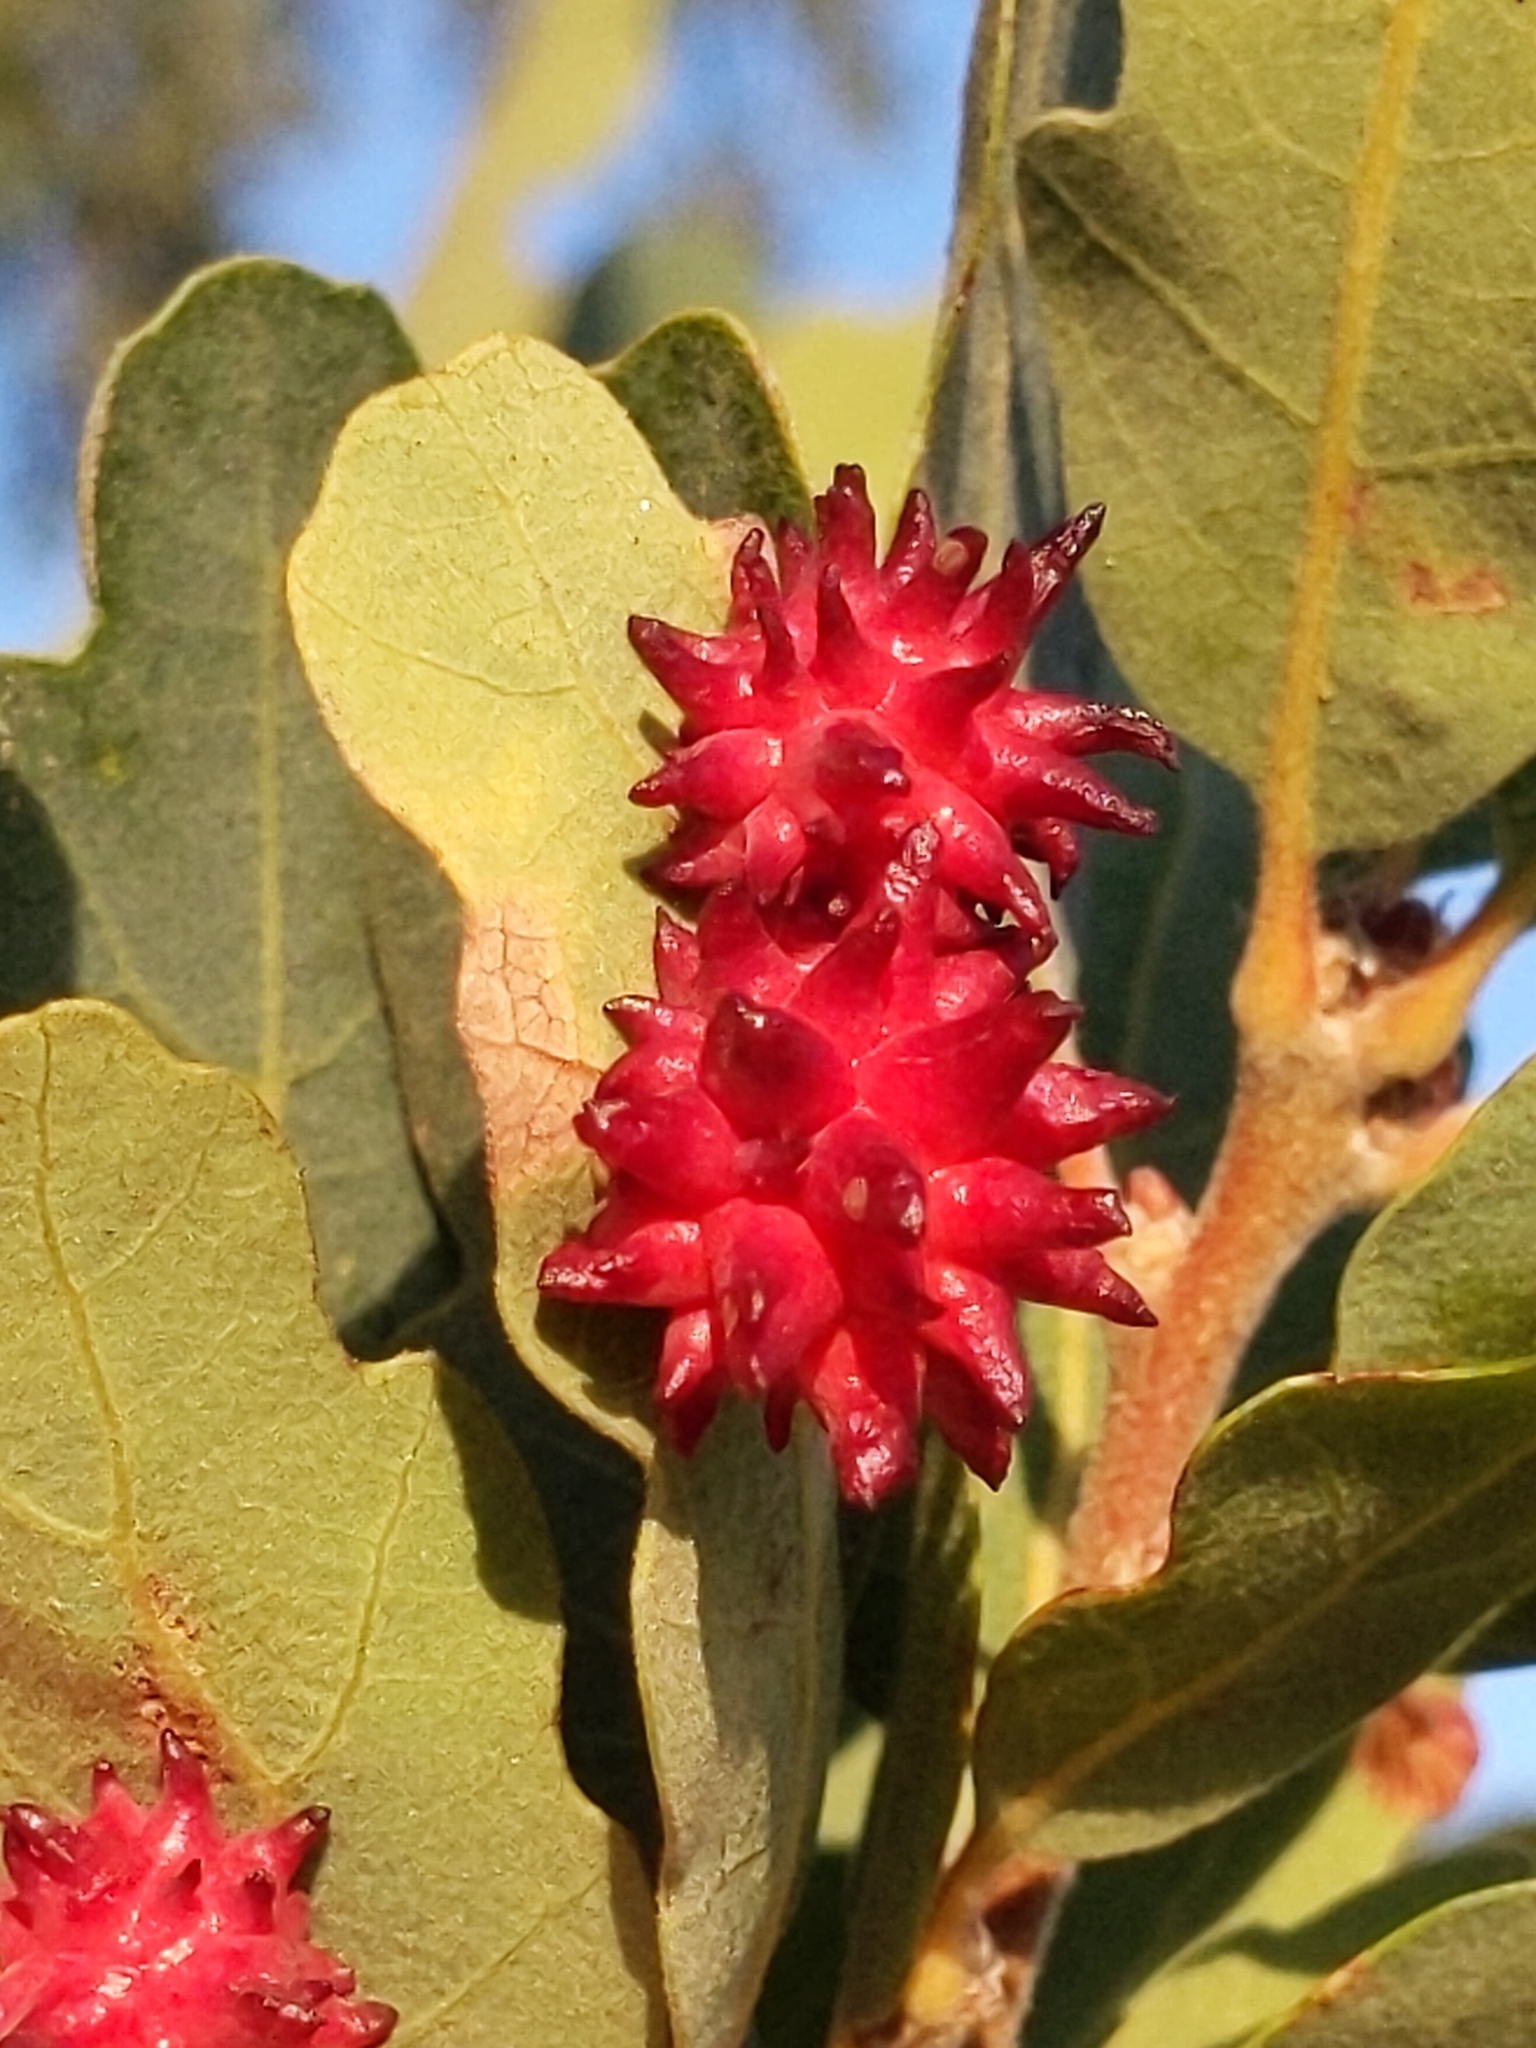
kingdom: Animalia
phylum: Arthropoda
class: Insecta
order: Hymenoptera
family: Cynipidae
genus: Cynips
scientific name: Cynips
